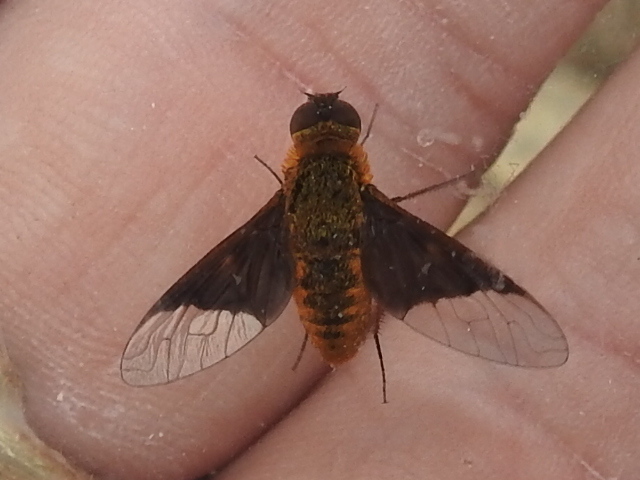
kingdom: Animalia
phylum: Arthropoda
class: Insecta
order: Diptera
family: Bombyliidae
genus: Chrysanthrax
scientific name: Chrysanthrax cypris
